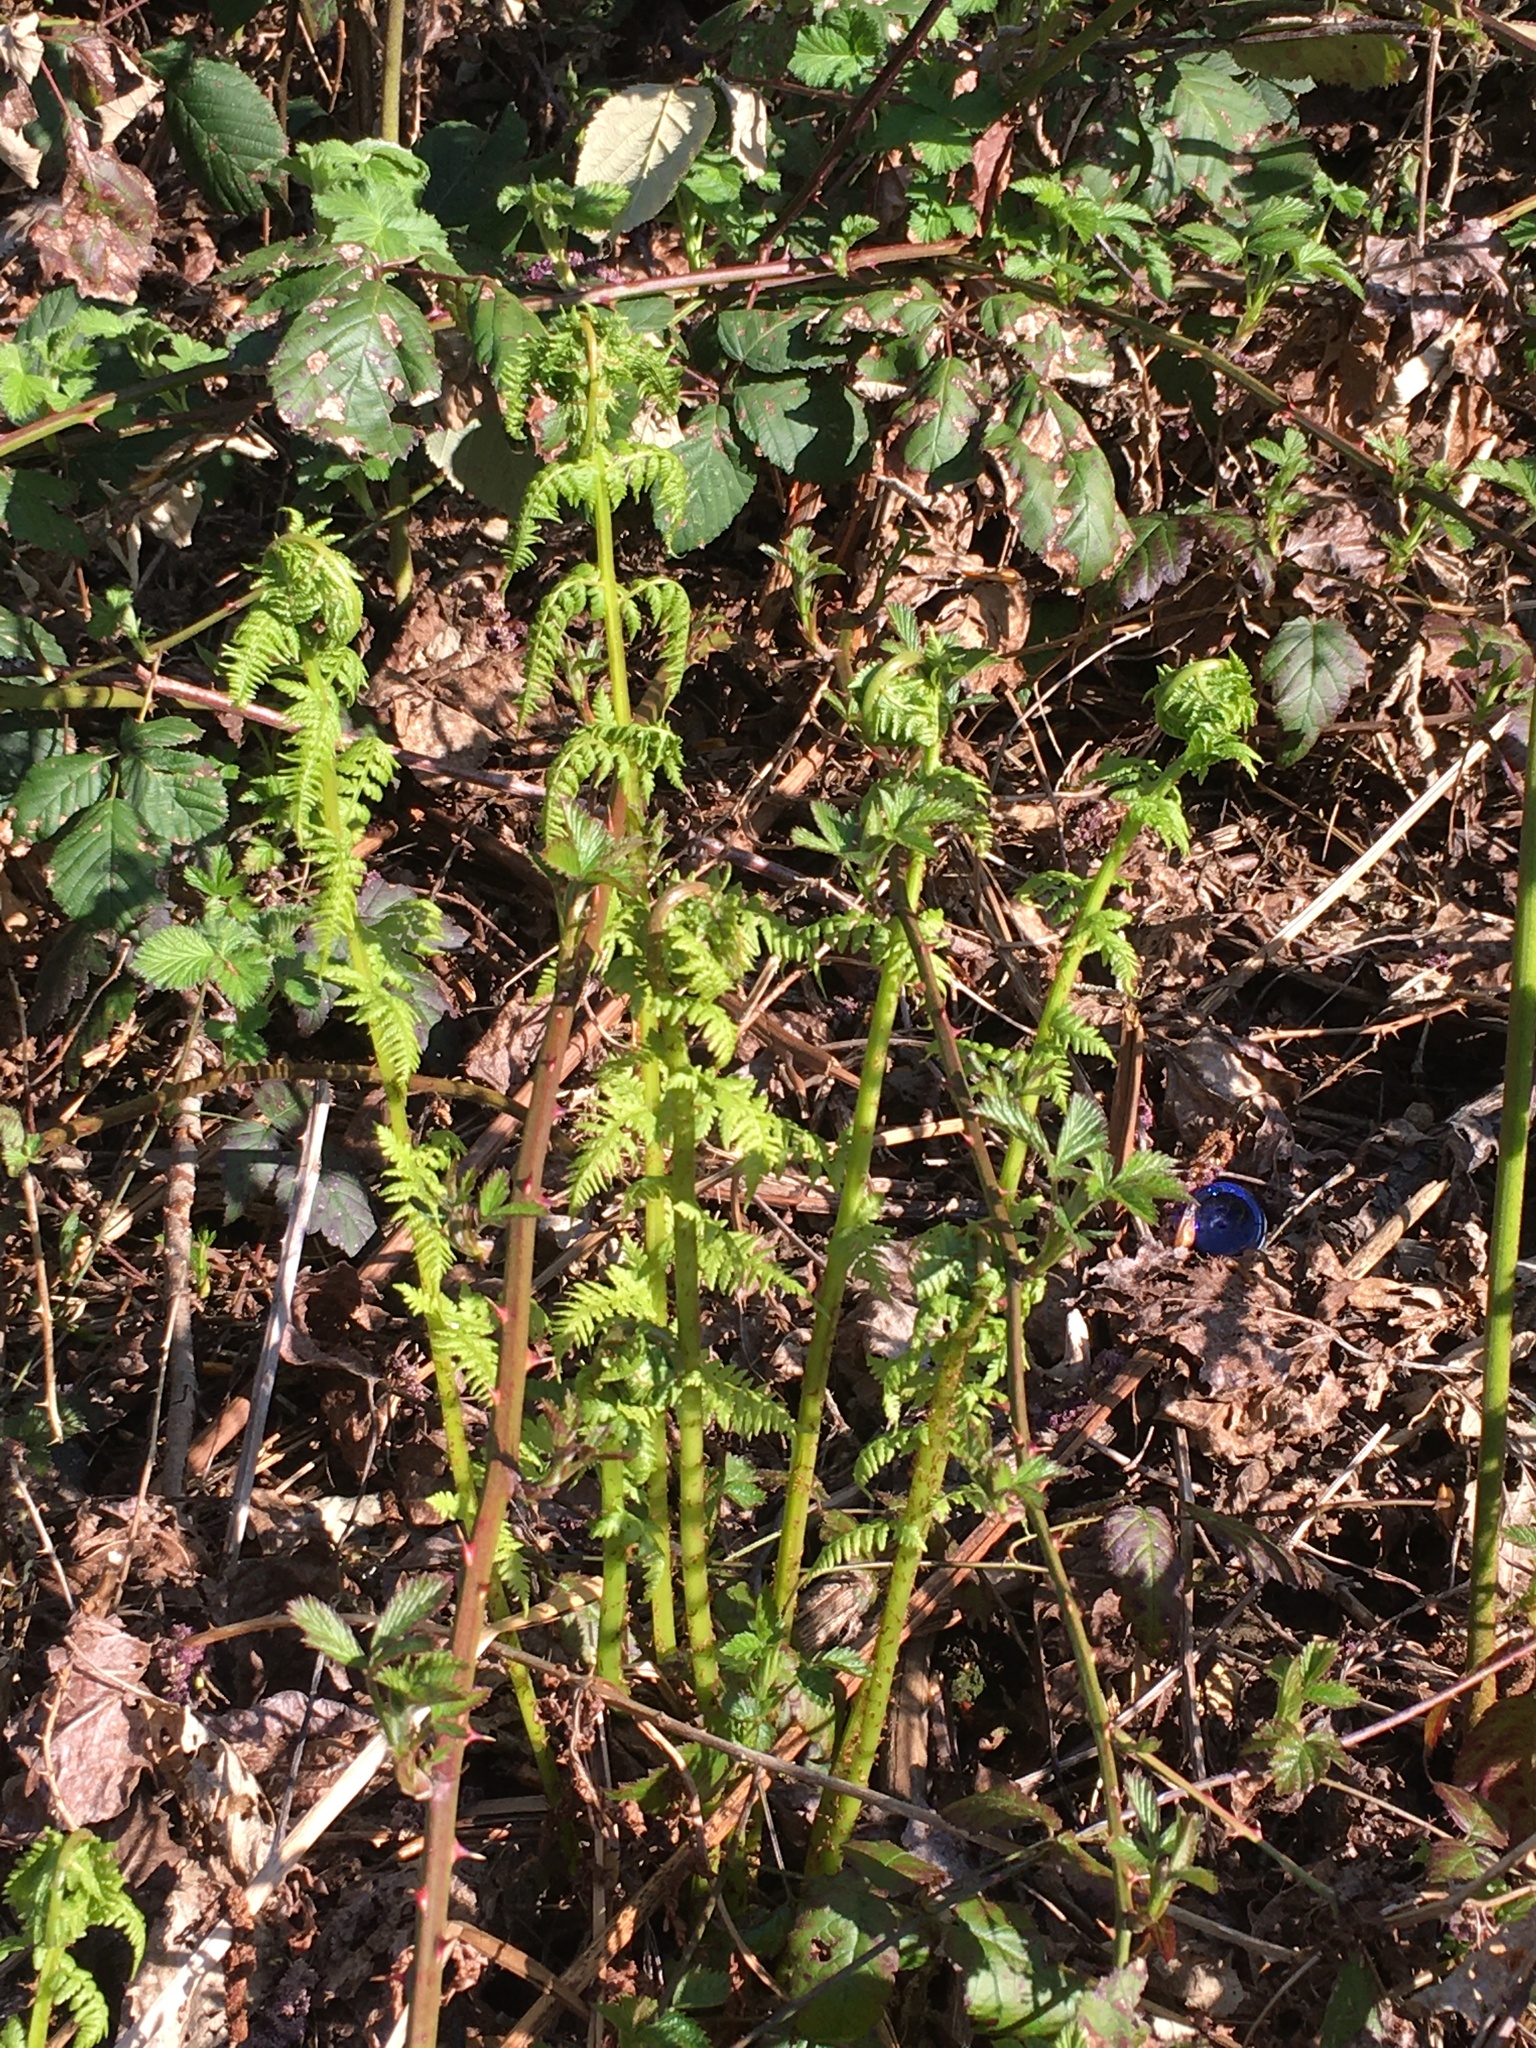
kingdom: Plantae
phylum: Tracheophyta
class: Polypodiopsida
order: Polypodiales
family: Athyriaceae
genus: Athyrium
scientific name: Athyrium filix-femina
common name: Lady fern
